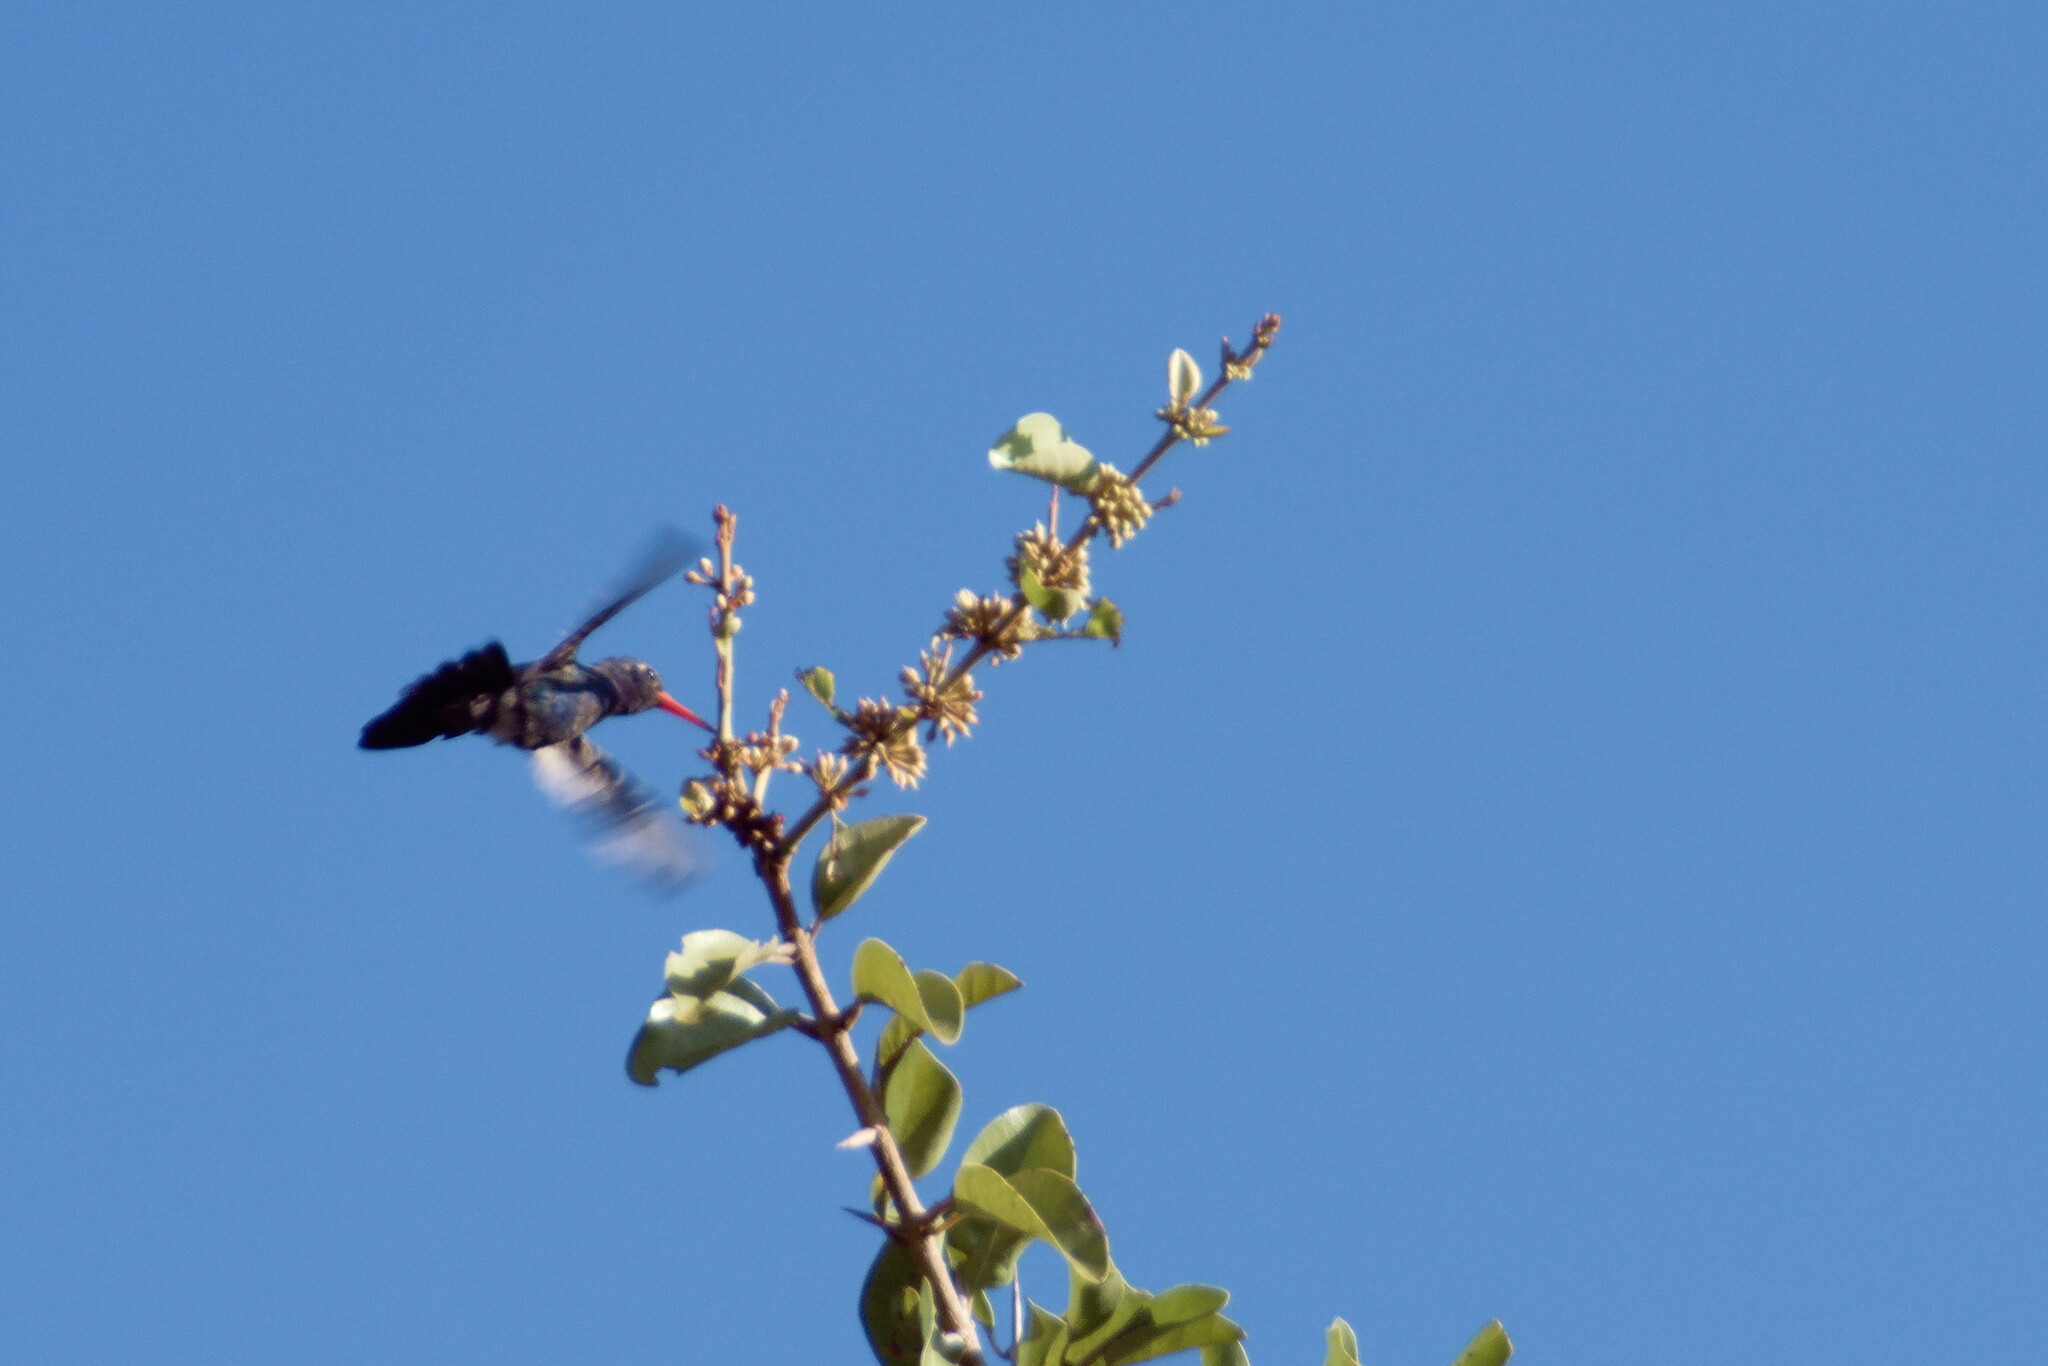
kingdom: Animalia
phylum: Chordata
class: Aves
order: Apodiformes
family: Trochilidae
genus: Cynanthus
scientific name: Cynanthus doubledayi
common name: Doubleday's hummingbird
